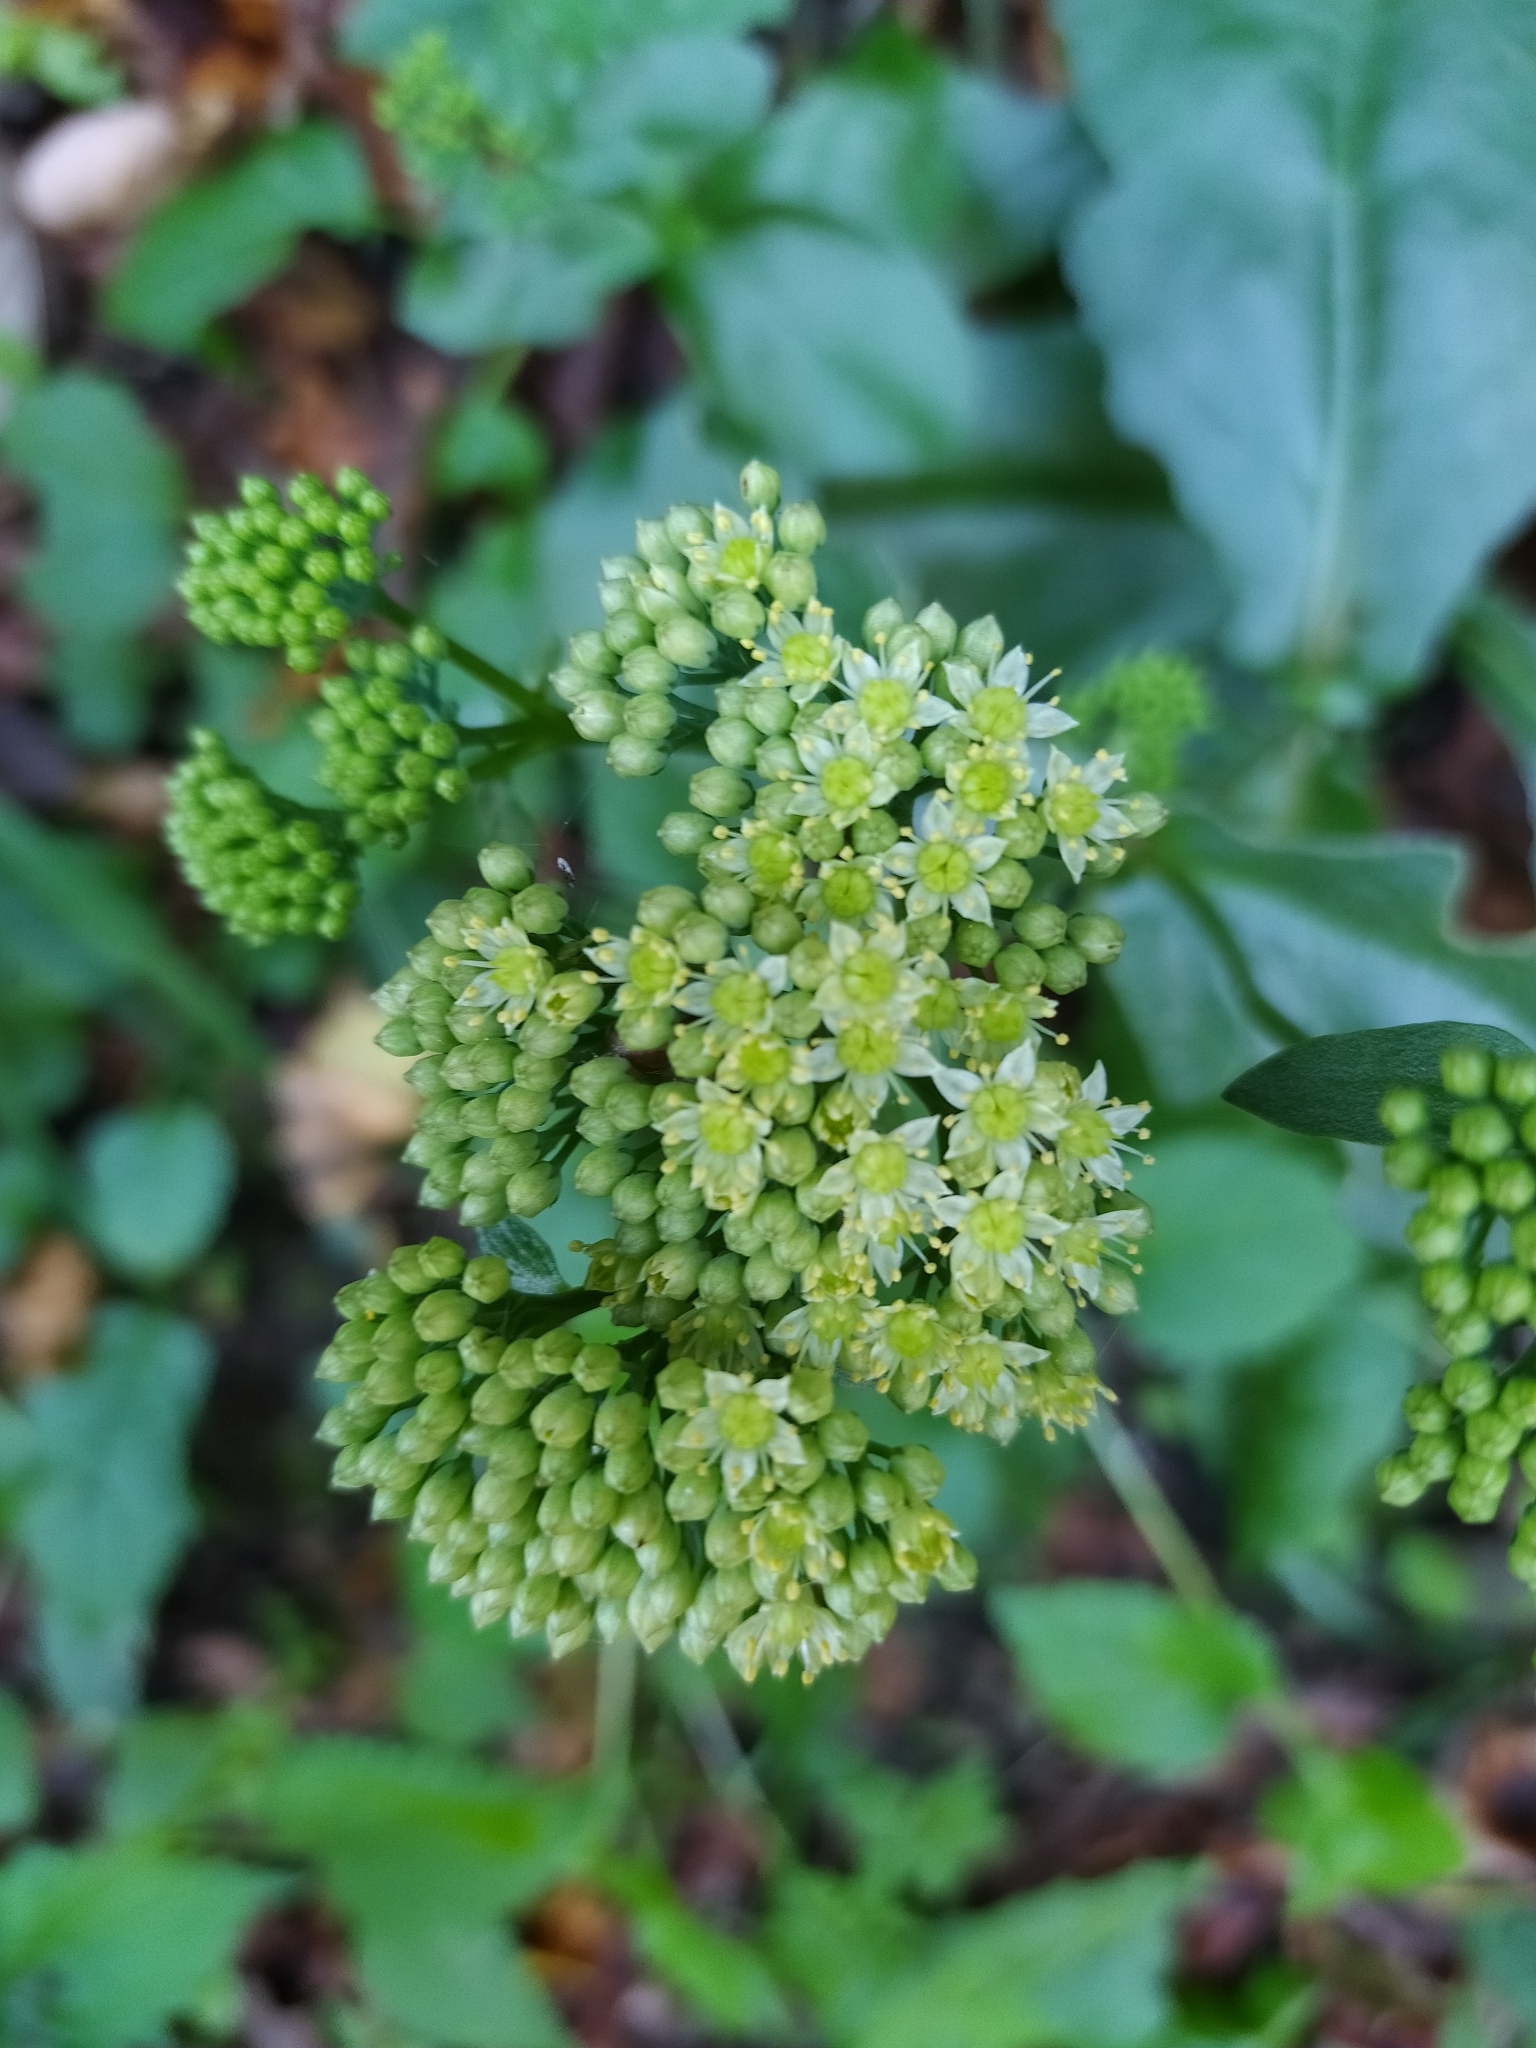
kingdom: Plantae
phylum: Tracheophyta
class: Magnoliopsida
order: Saxifragales
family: Crassulaceae
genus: Hylotelephium
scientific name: Hylotelephium maximum
